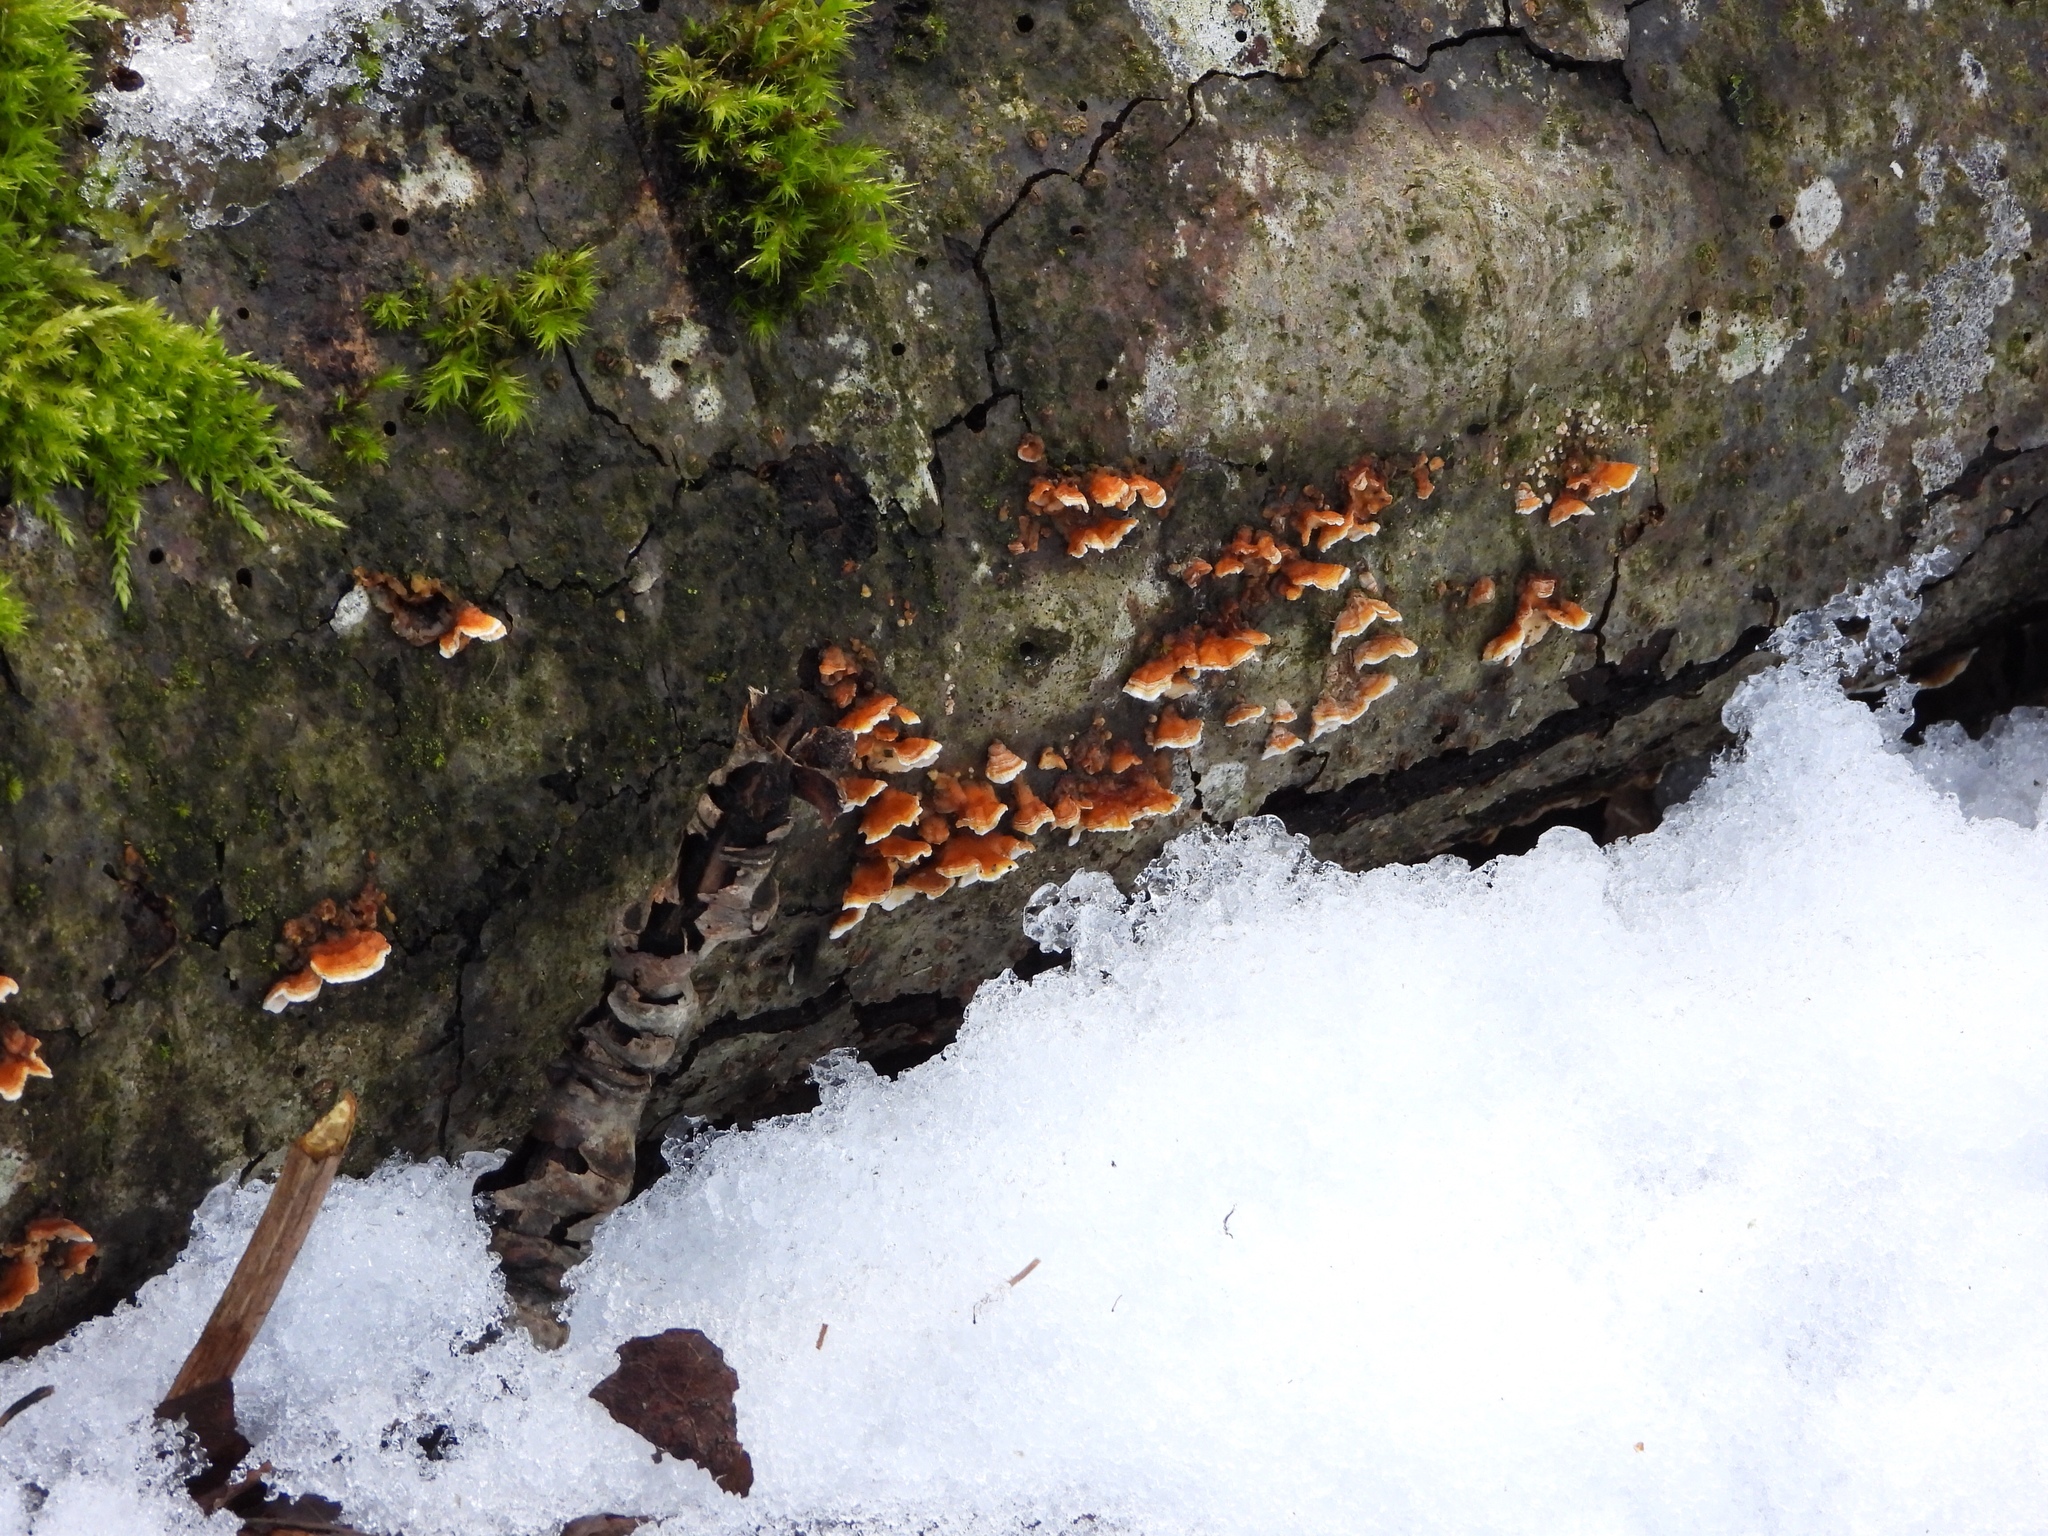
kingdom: Fungi
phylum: Basidiomycota
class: Agaricomycetes
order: Russulales
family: Stereaceae
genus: Stereum
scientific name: Stereum hirsutum
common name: Hairy curtain crust
